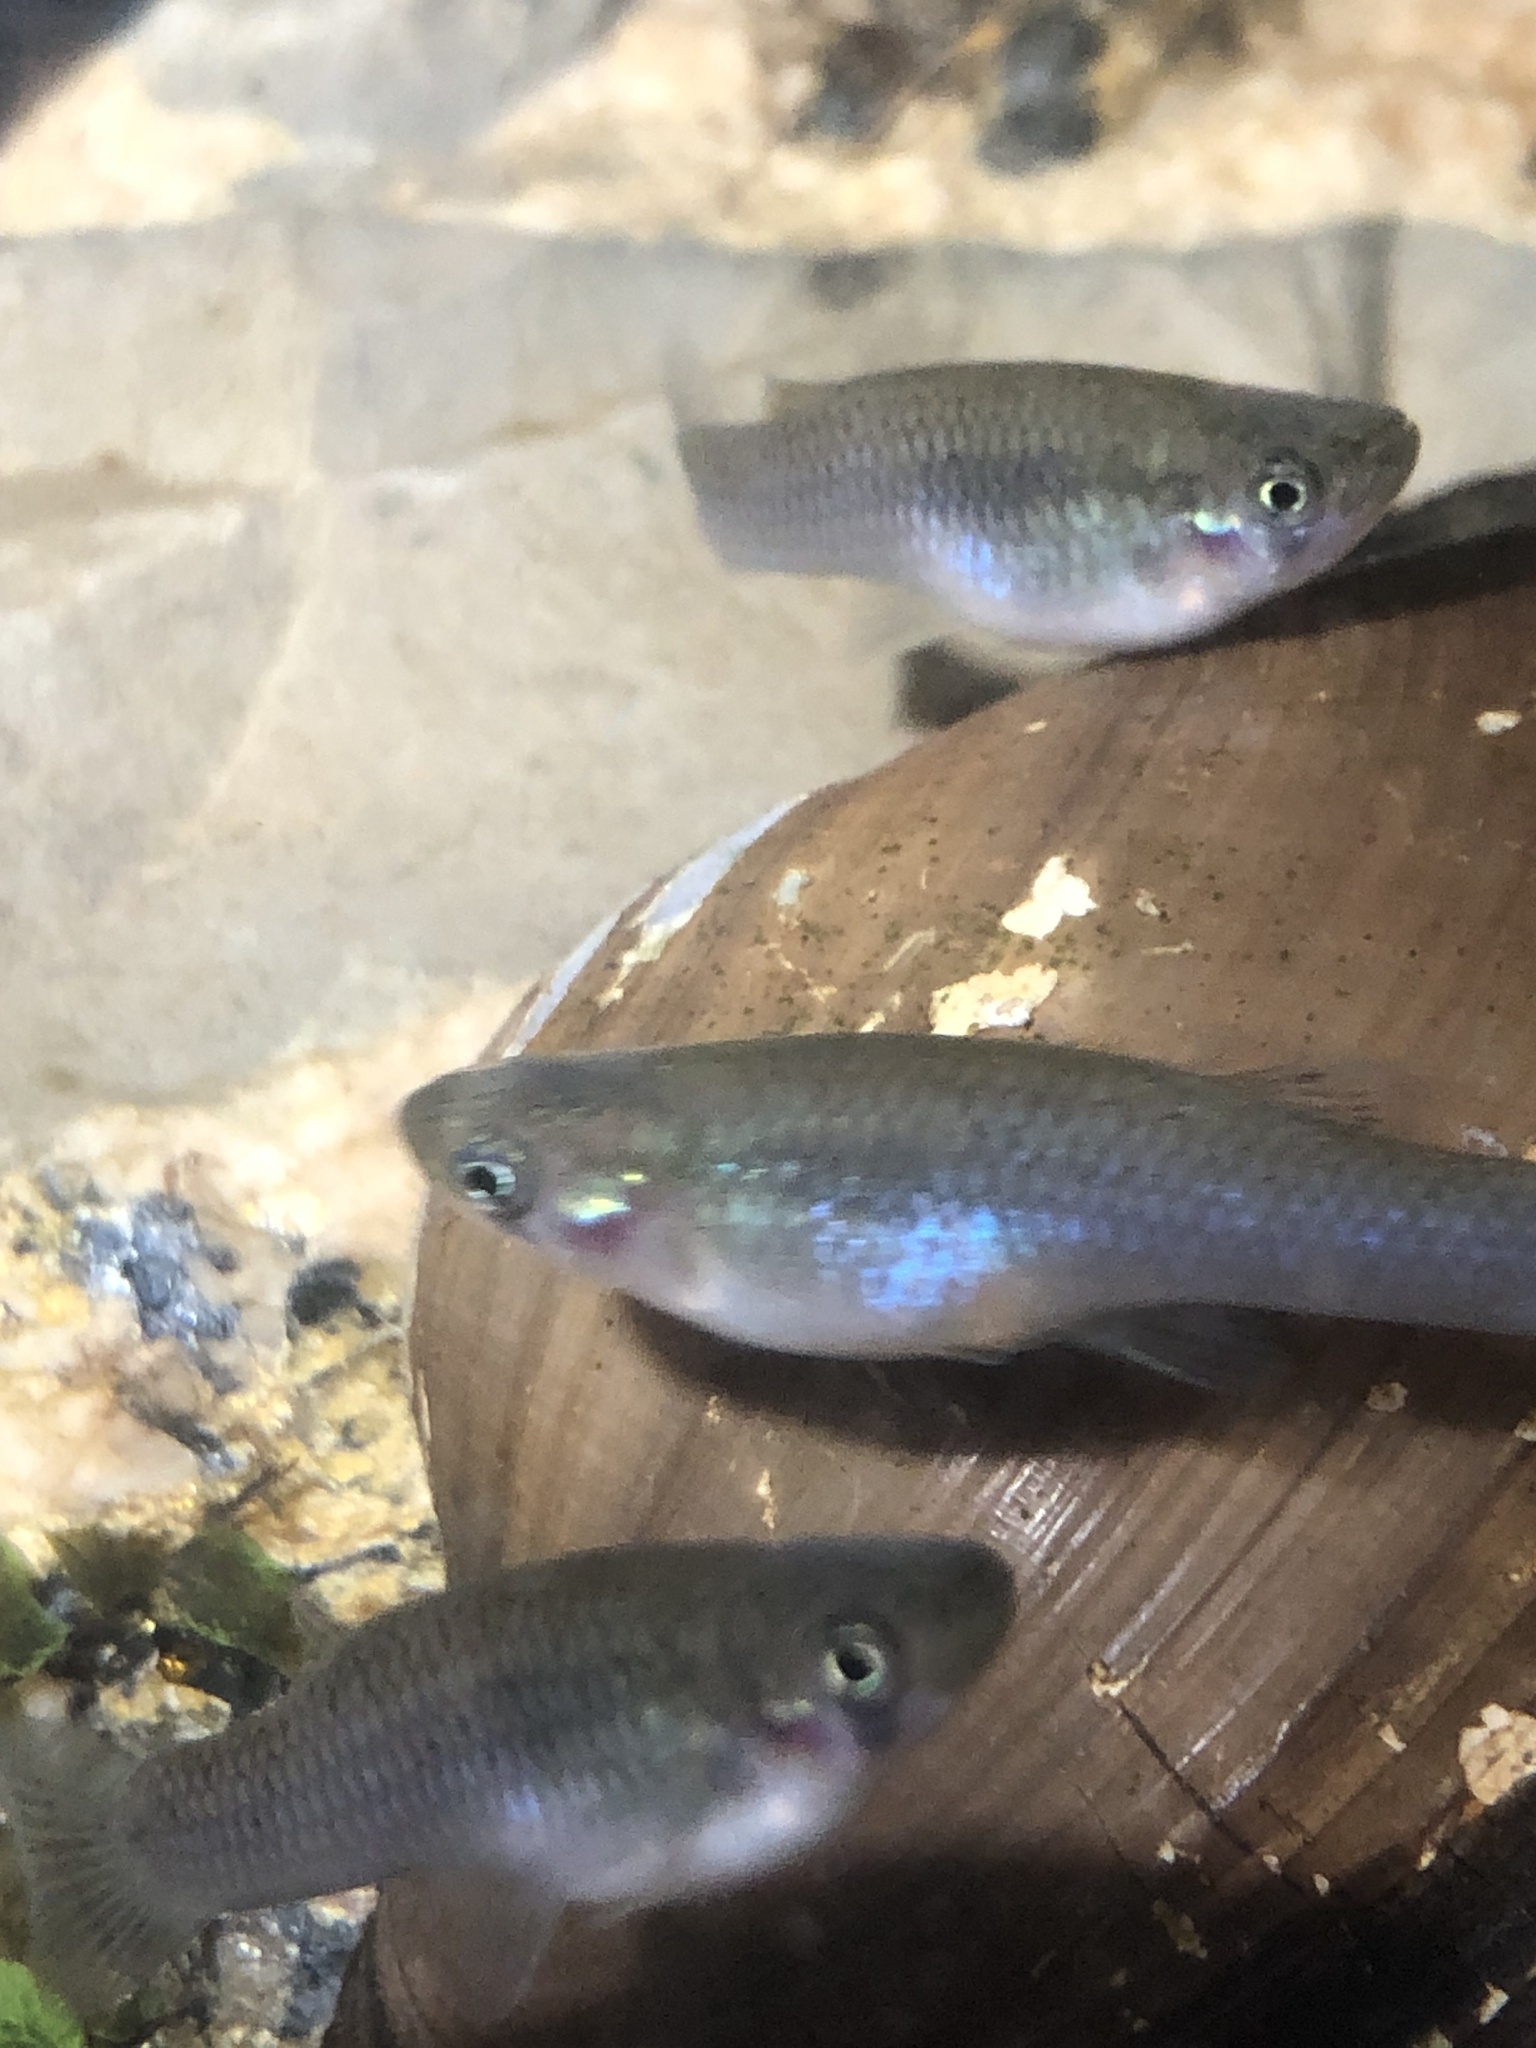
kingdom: Animalia
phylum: Chordata
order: Cyprinodontiformes
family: Poeciliidae
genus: Gambusia
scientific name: Gambusia affinis
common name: Mosquitofish
